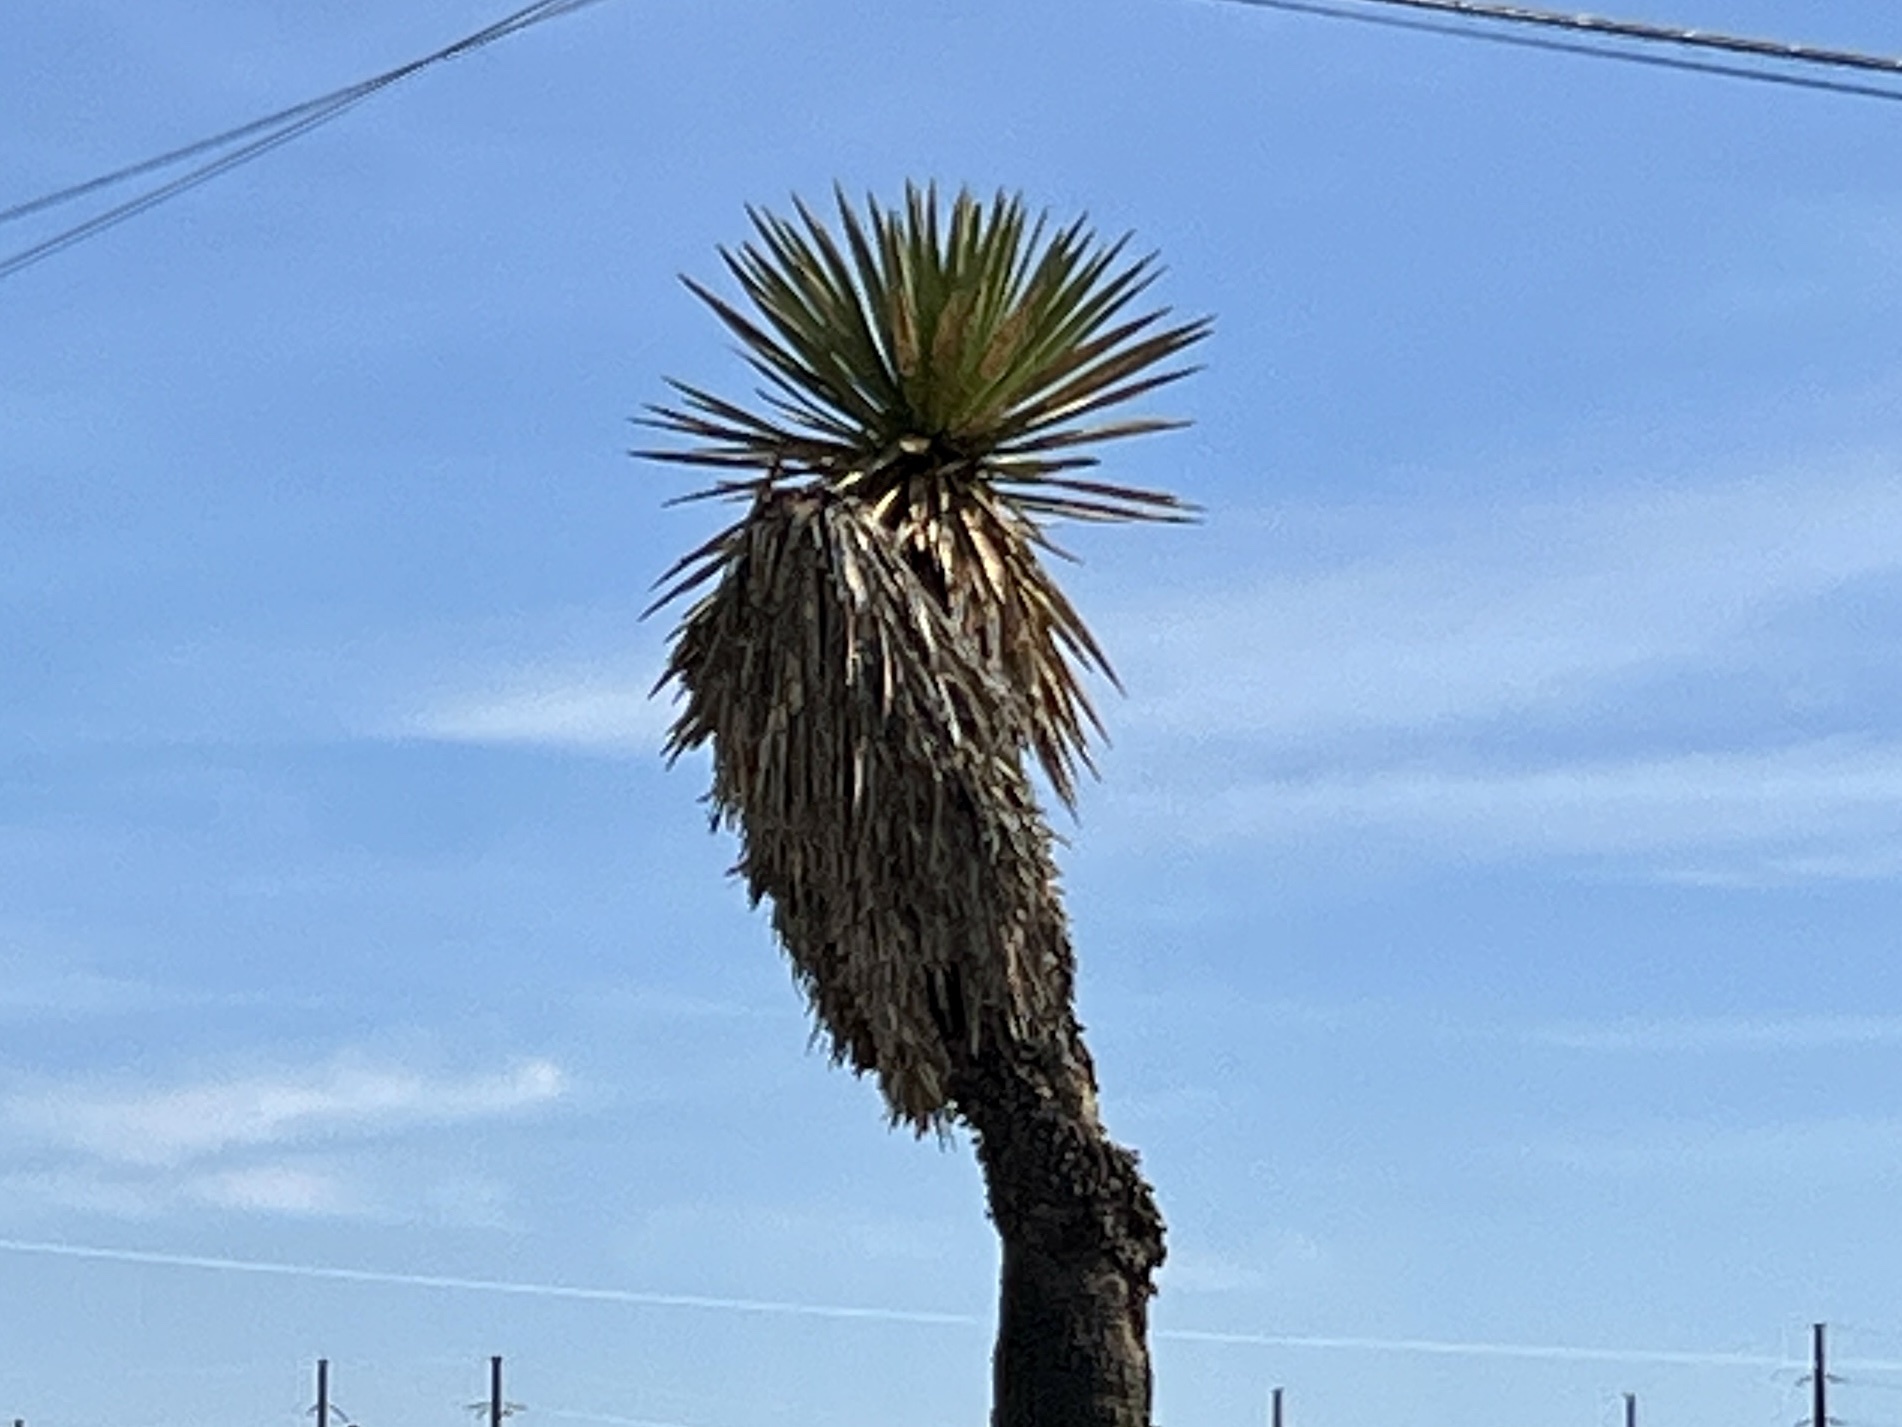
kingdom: Plantae
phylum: Tracheophyta
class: Liliopsida
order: Asparagales
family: Asparagaceae
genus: Yucca
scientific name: Yucca faxoniana
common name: Spanish dagger
